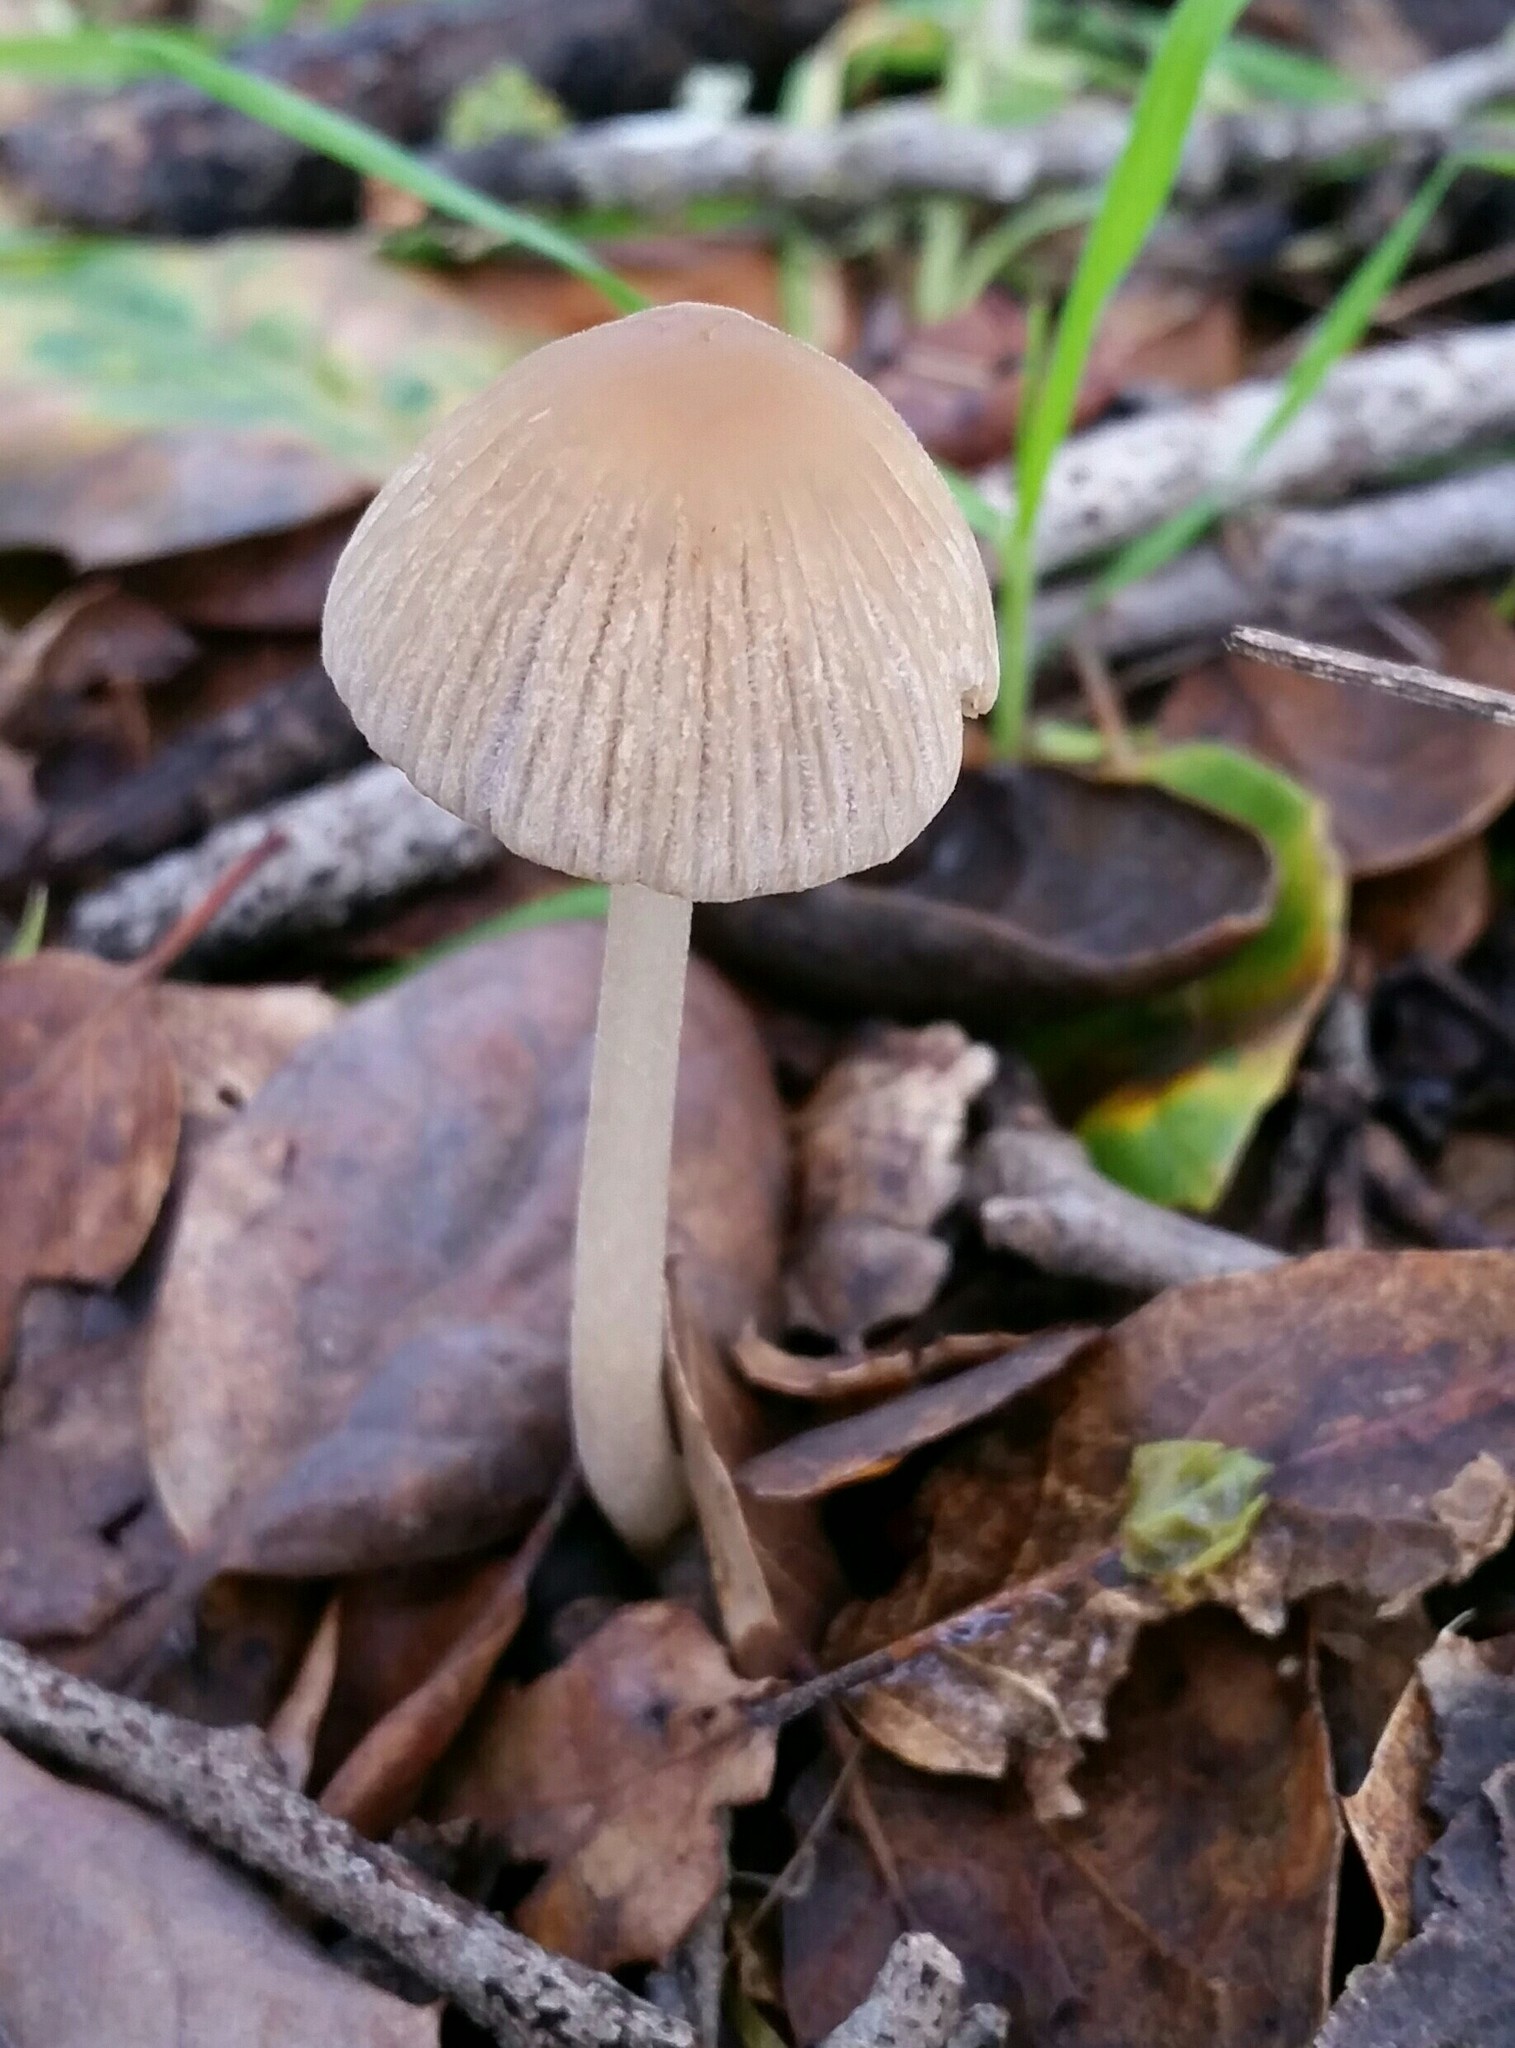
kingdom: Fungi
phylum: Basidiomycota
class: Agaricomycetes
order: Agaricales
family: Psathyrellaceae
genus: Tulosesus
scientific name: Tulosesus impatiens
